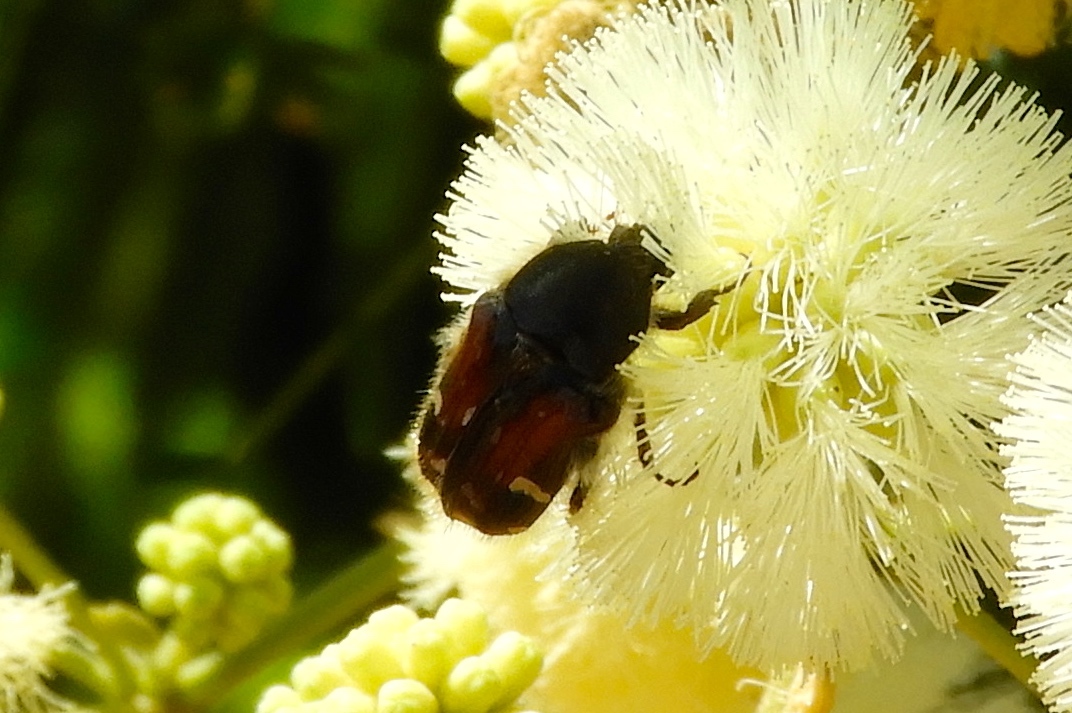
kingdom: Animalia
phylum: Arthropoda
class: Insecta
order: Coleoptera
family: Scarabaeidae
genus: Euphoria
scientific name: Euphoria pulchella
